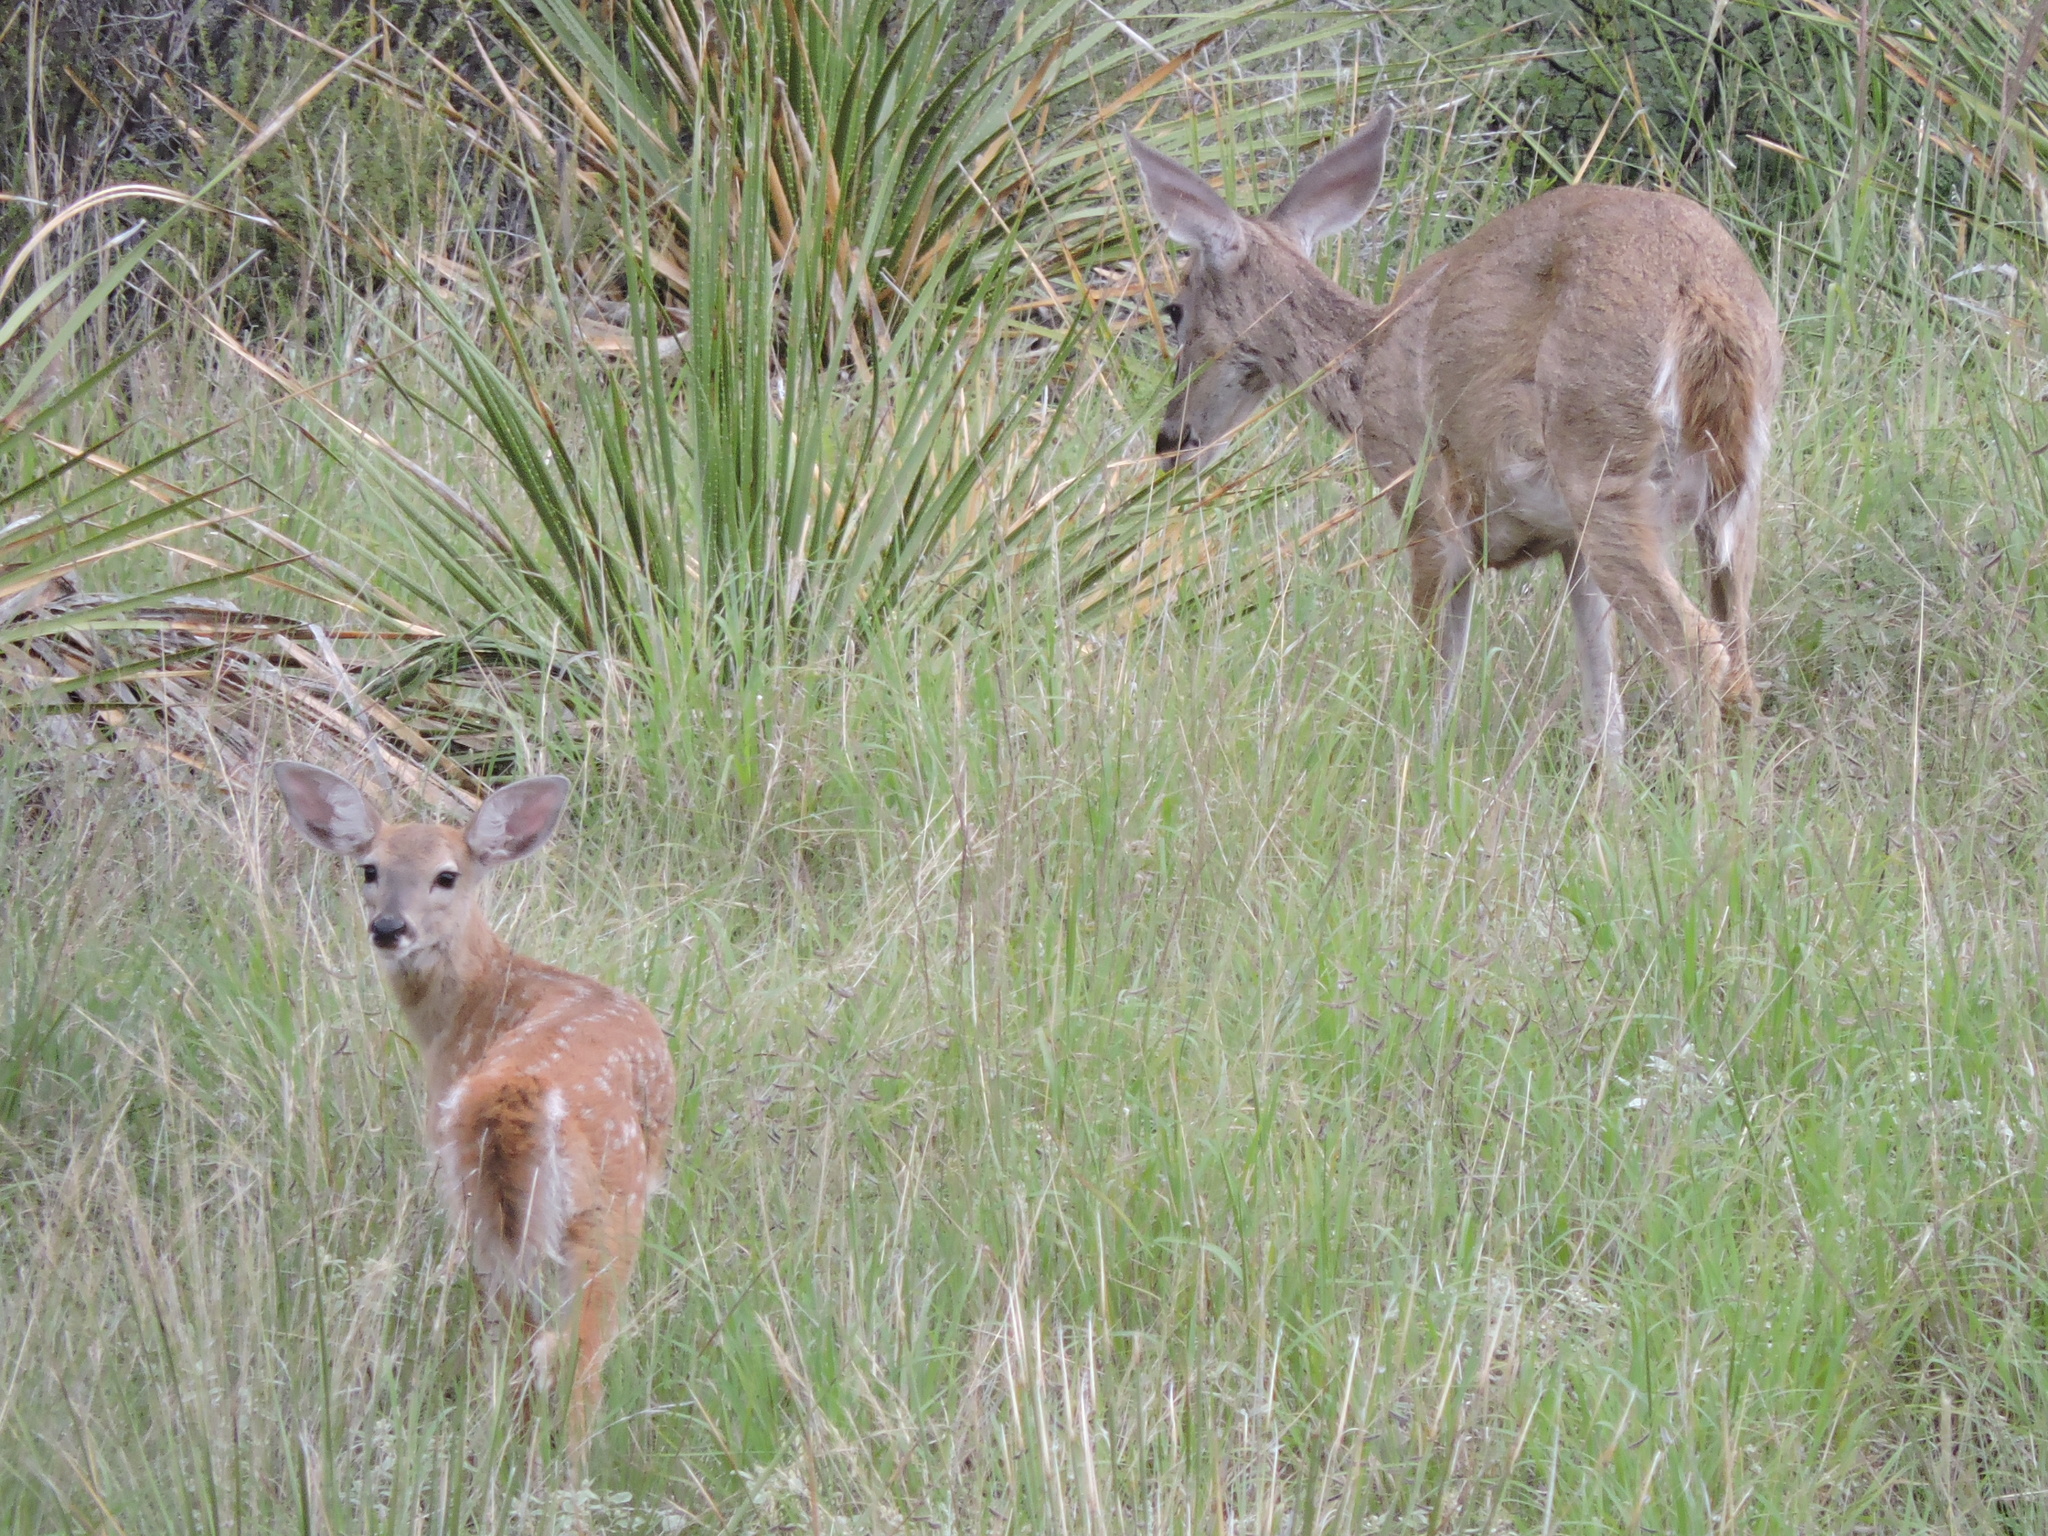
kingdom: Animalia
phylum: Chordata
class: Mammalia
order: Artiodactyla
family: Cervidae
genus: Odocoileus
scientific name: Odocoileus virginianus
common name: White-tailed deer
